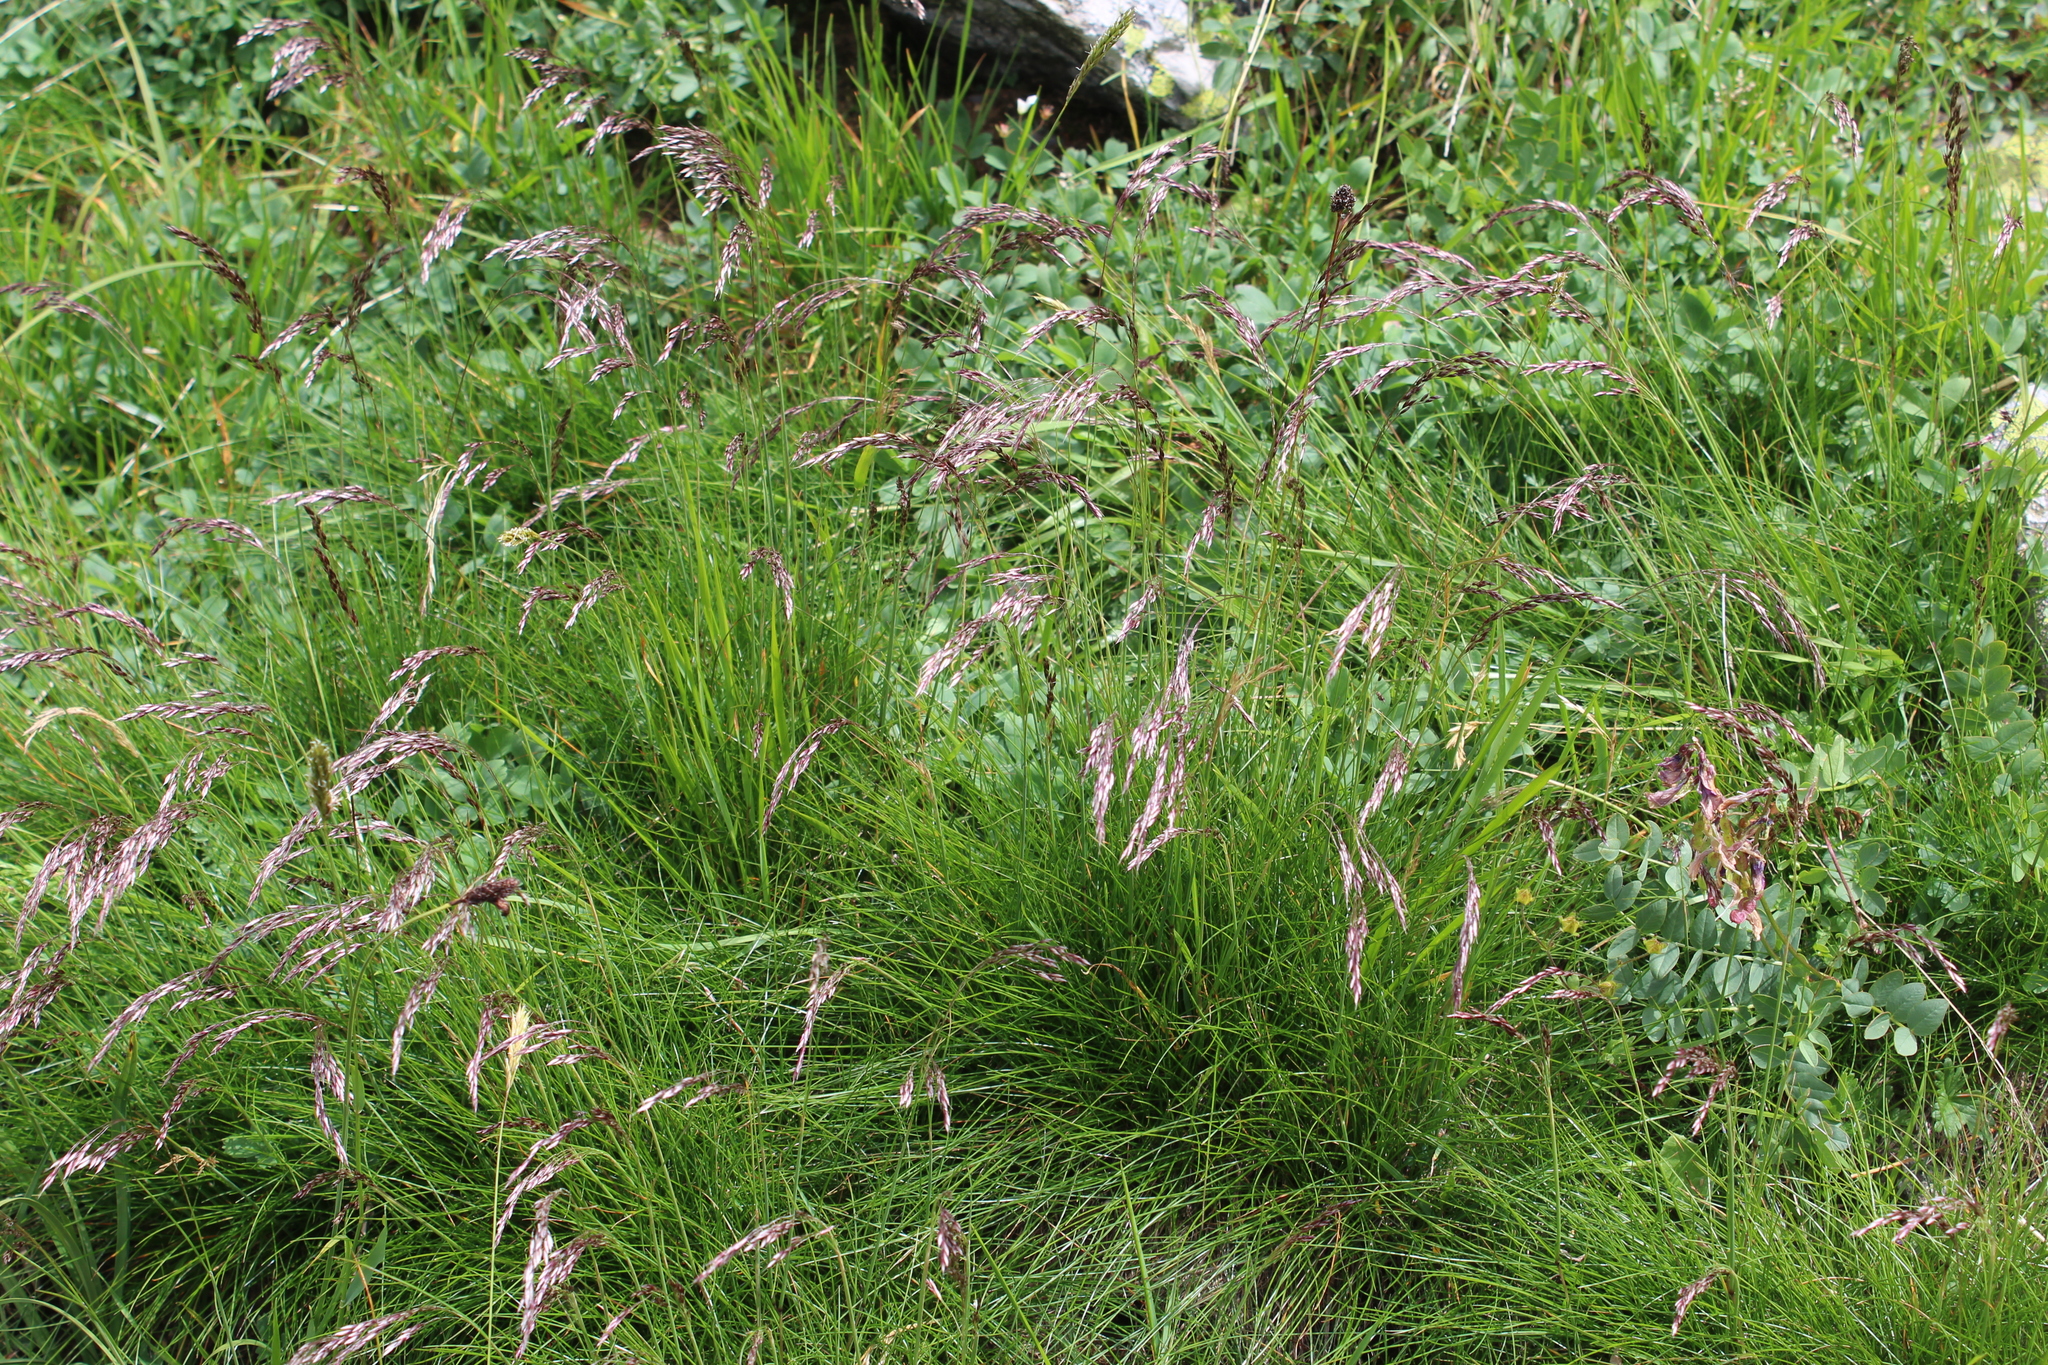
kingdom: Plantae
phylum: Tracheophyta
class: Liliopsida
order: Poales
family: Poaceae
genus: Avenella
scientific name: Avenella flexuosa
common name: Wavy hairgrass
